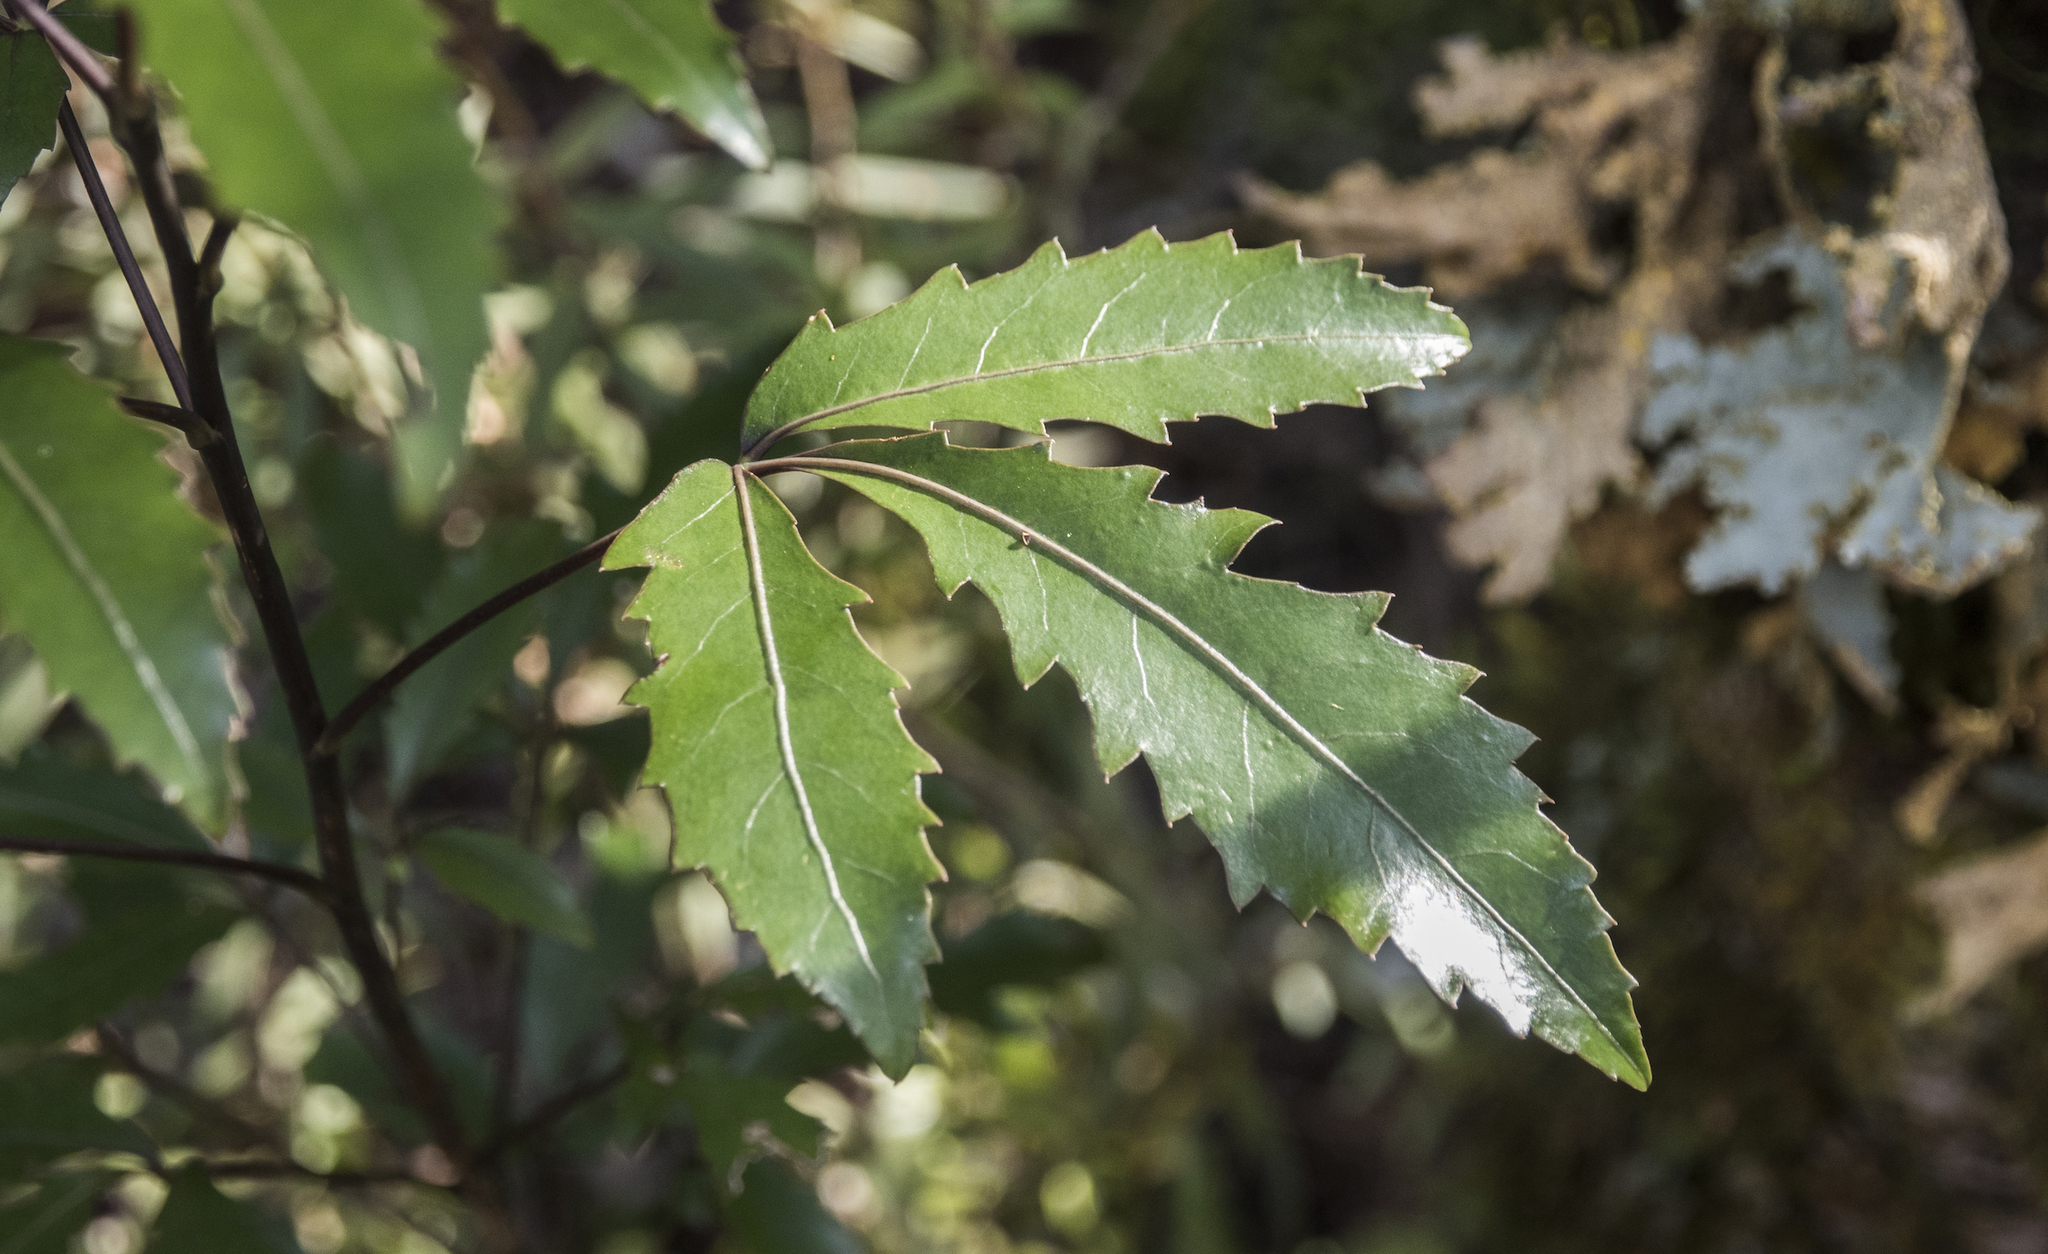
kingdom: Plantae
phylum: Tracheophyta
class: Magnoliopsida
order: Apiales
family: Araliaceae
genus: Raukaua
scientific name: Raukaua simplex
